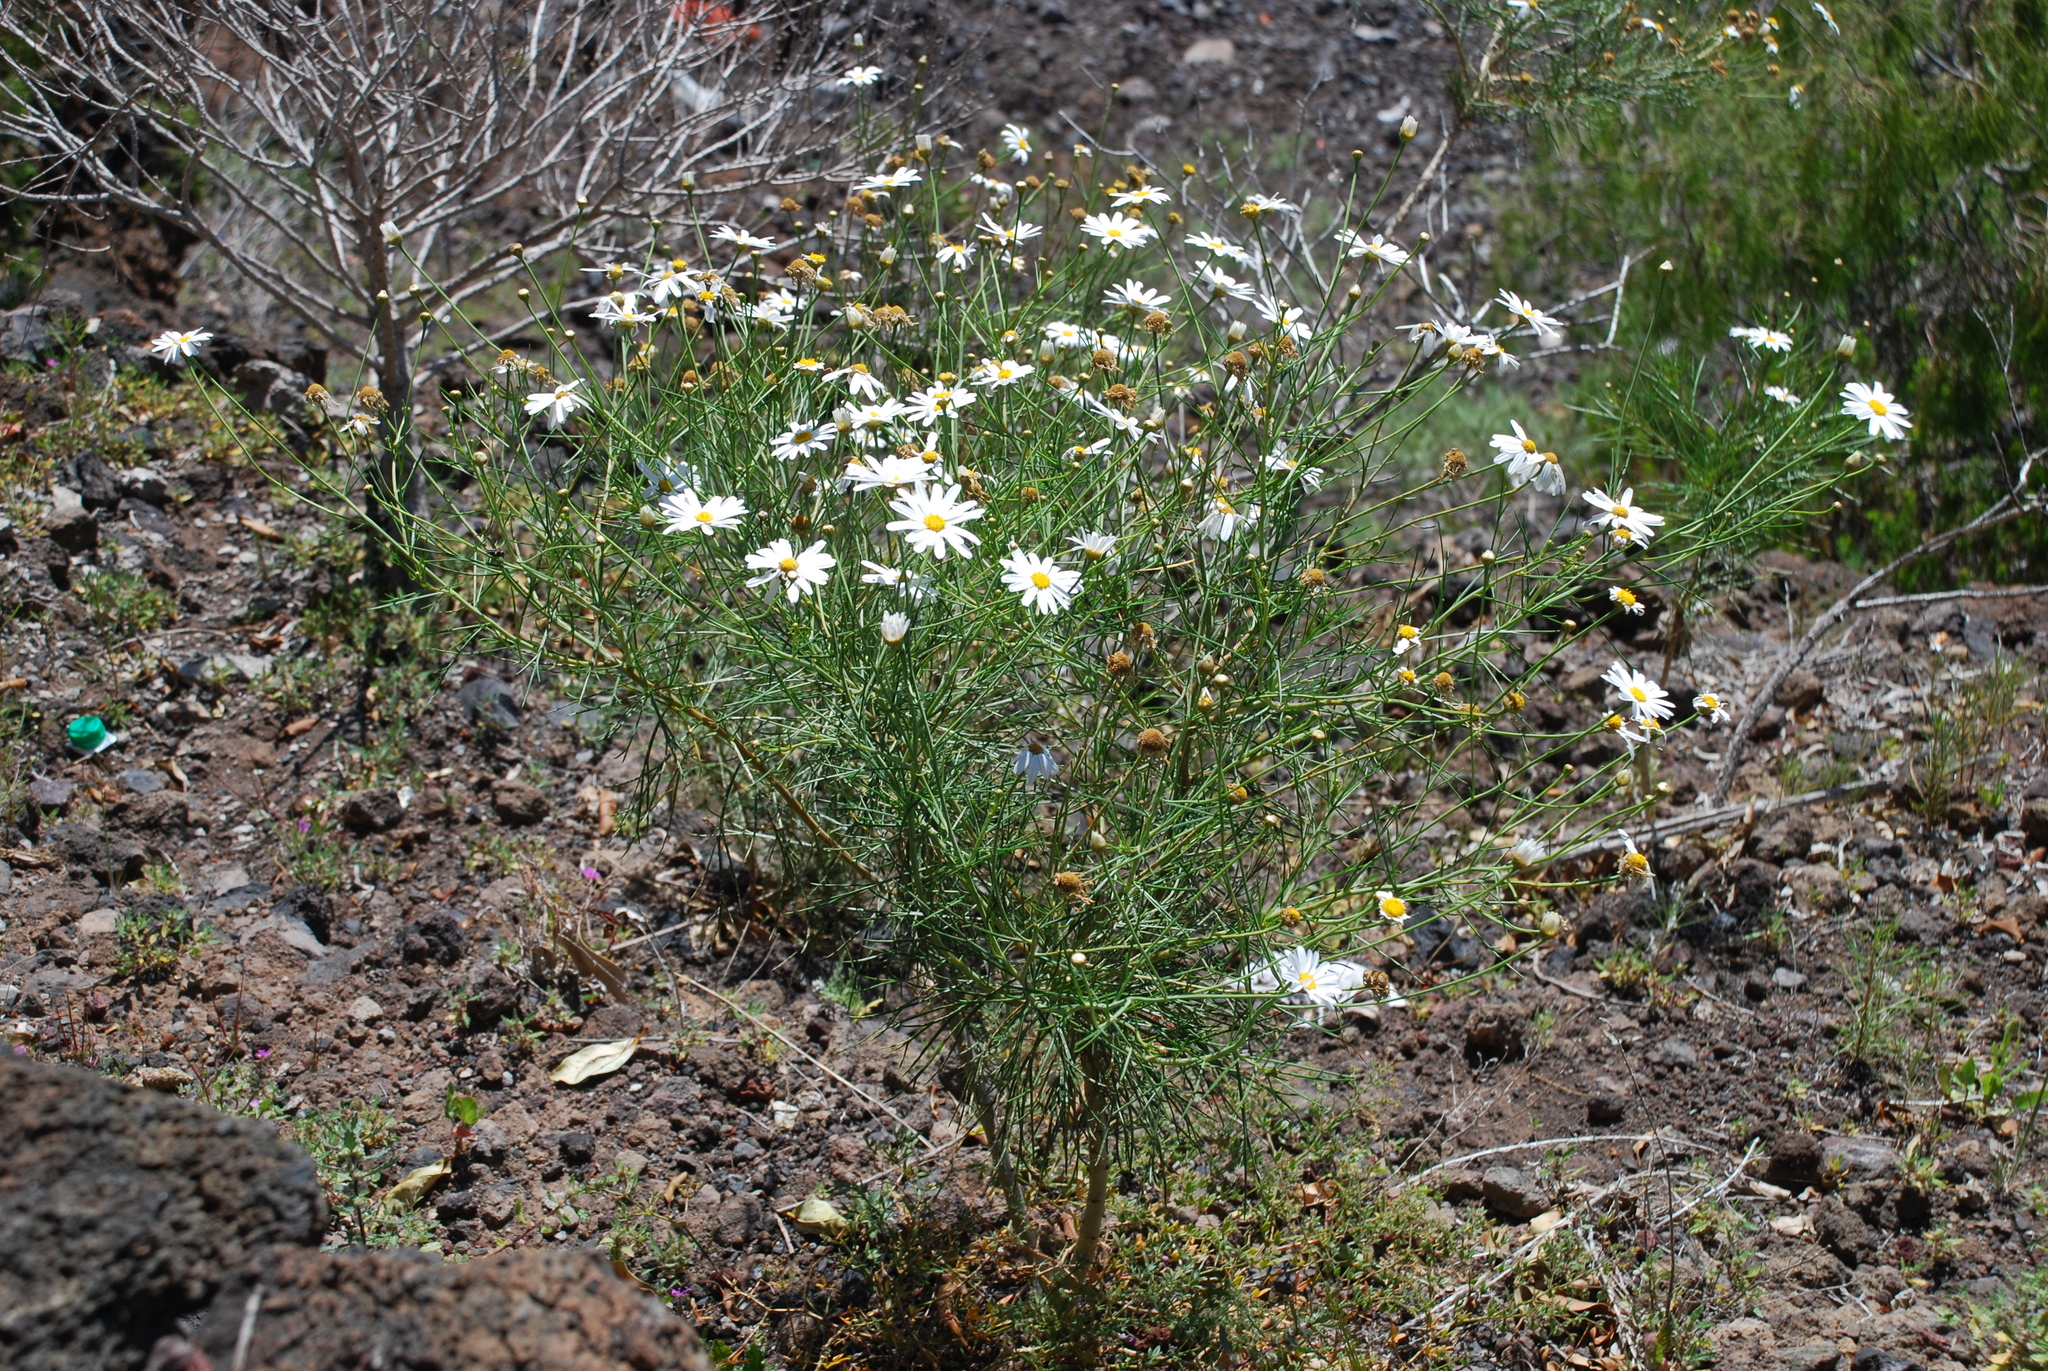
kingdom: Plantae
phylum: Tracheophyta
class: Magnoliopsida
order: Asterales
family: Asteraceae
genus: Argyranthemum
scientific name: Argyranthemum gracile
